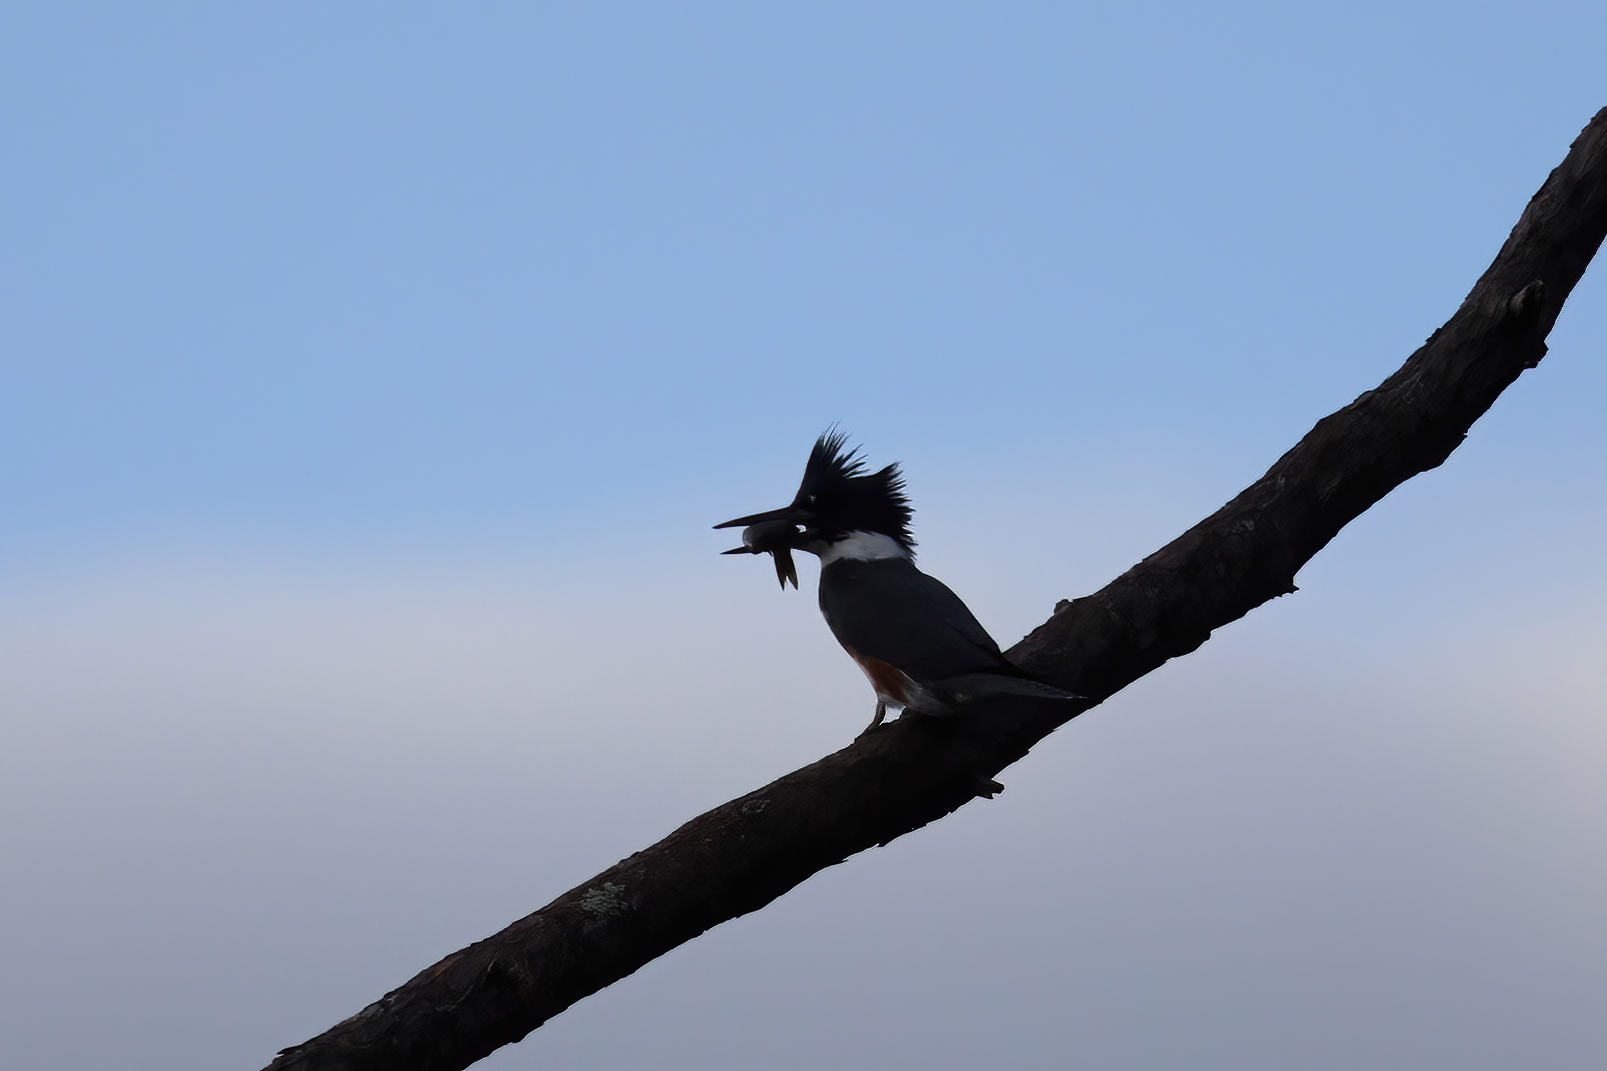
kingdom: Animalia
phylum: Chordata
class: Aves
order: Coraciiformes
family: Alcedinidae
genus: Megaceryle
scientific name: Megaceryle alcyon
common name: Belted kingfisher
